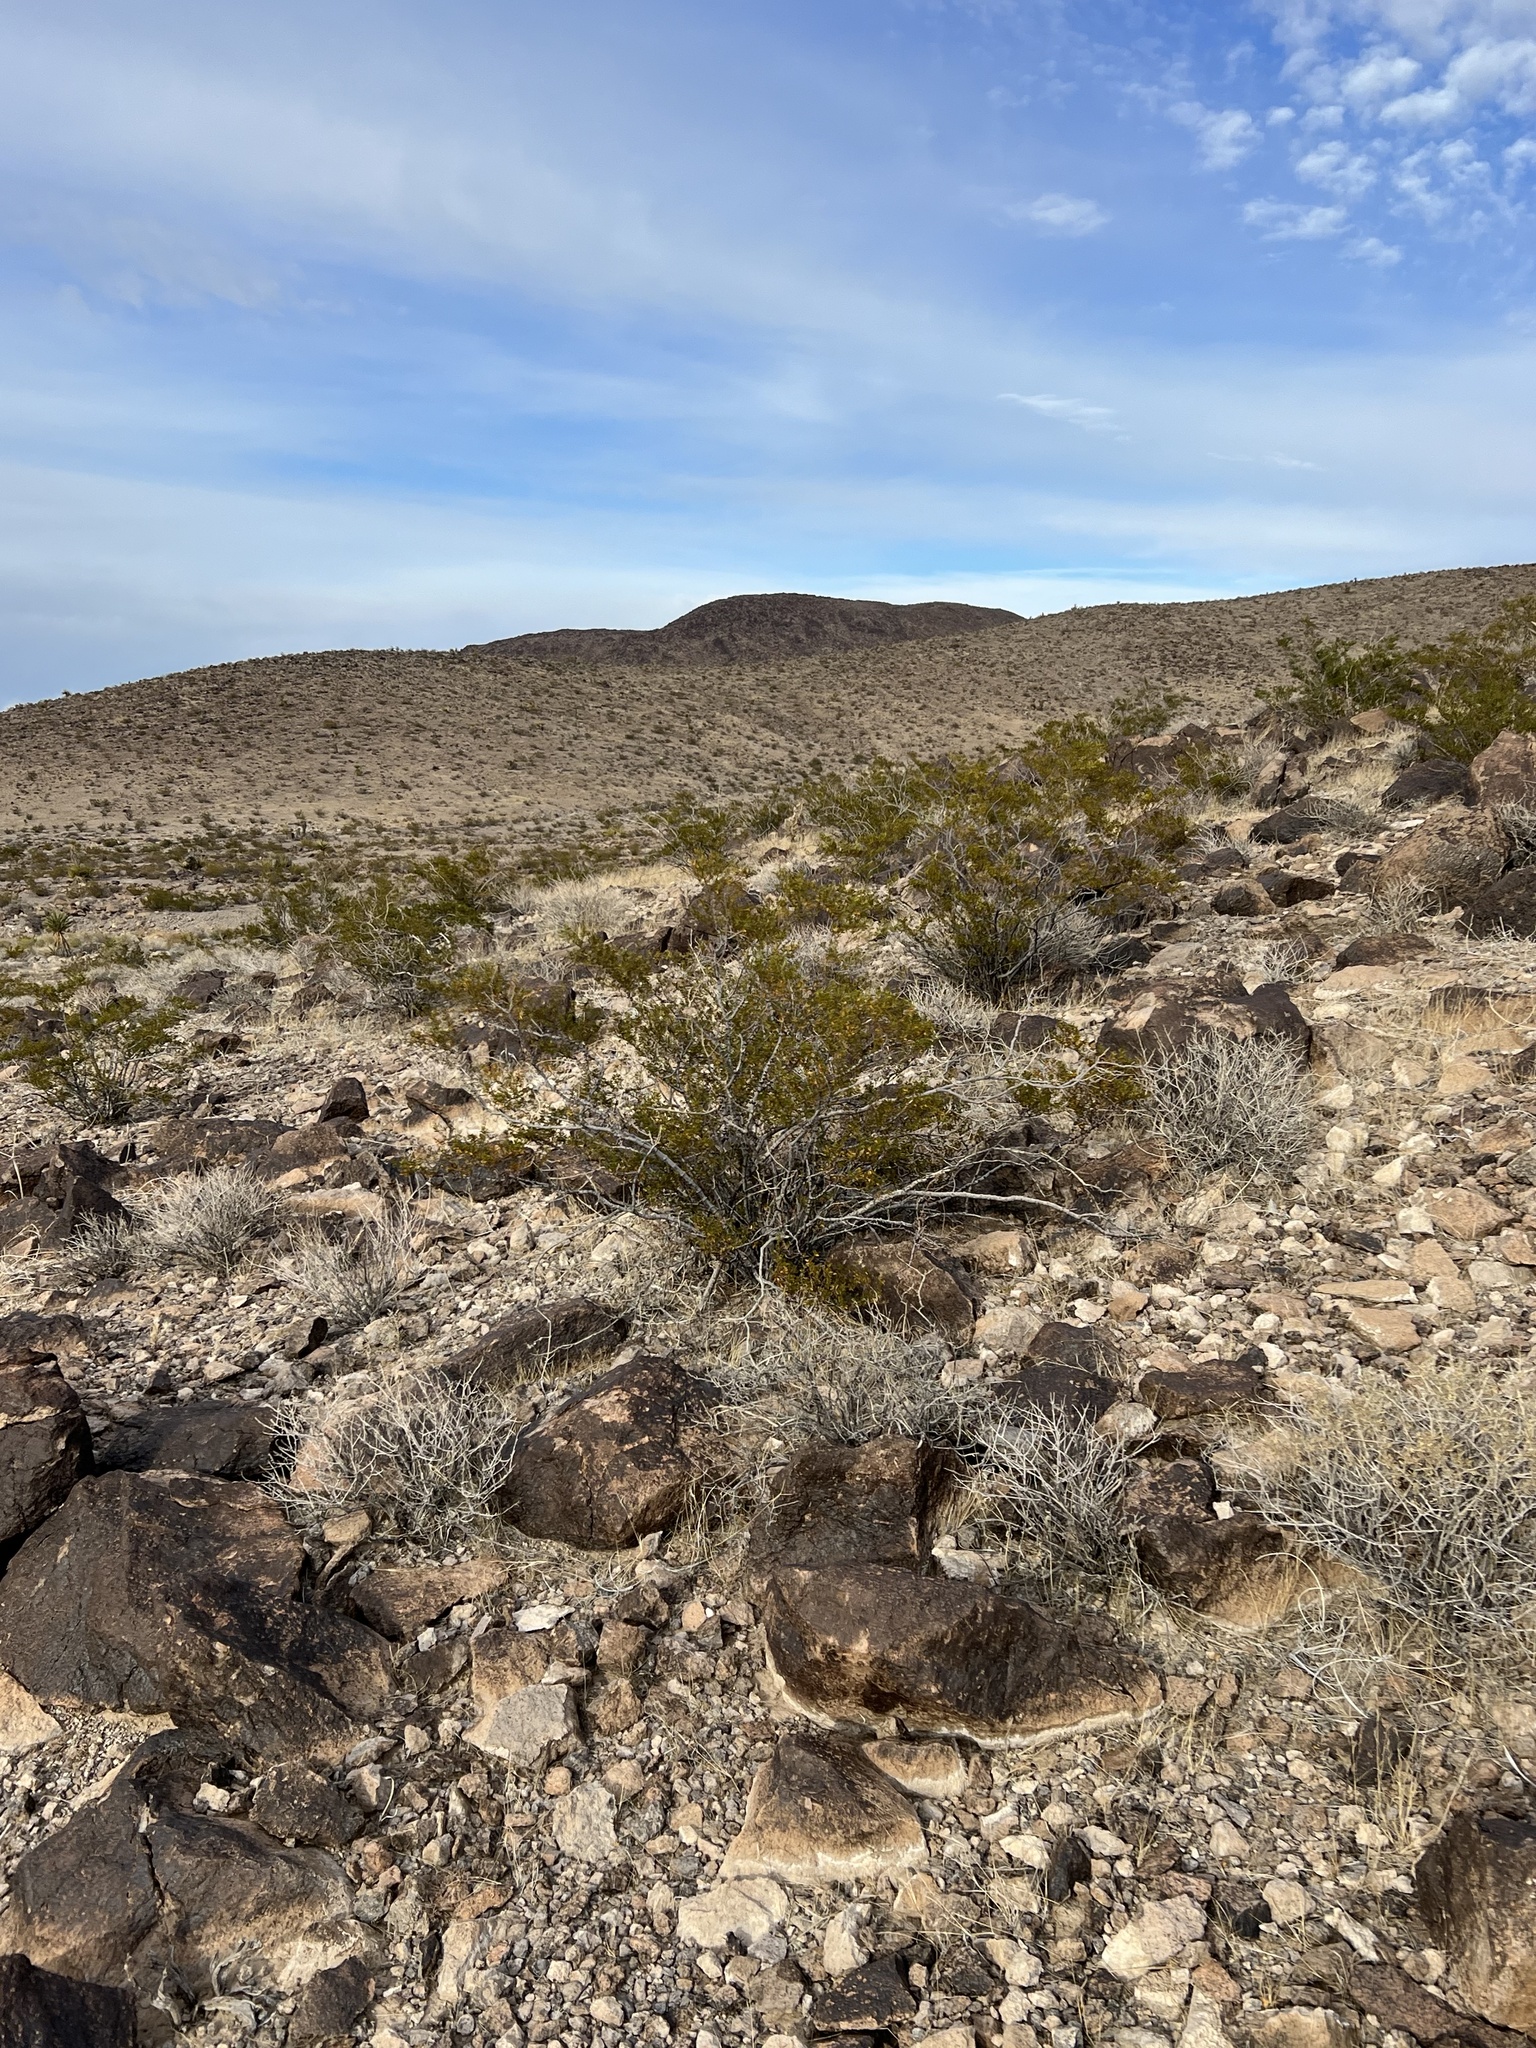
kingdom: Plantae
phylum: Tracheophyta
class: Magnoliopsida
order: Zygophyllales
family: Zygophyllaceae
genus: Larrea
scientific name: Larrea tridentata
